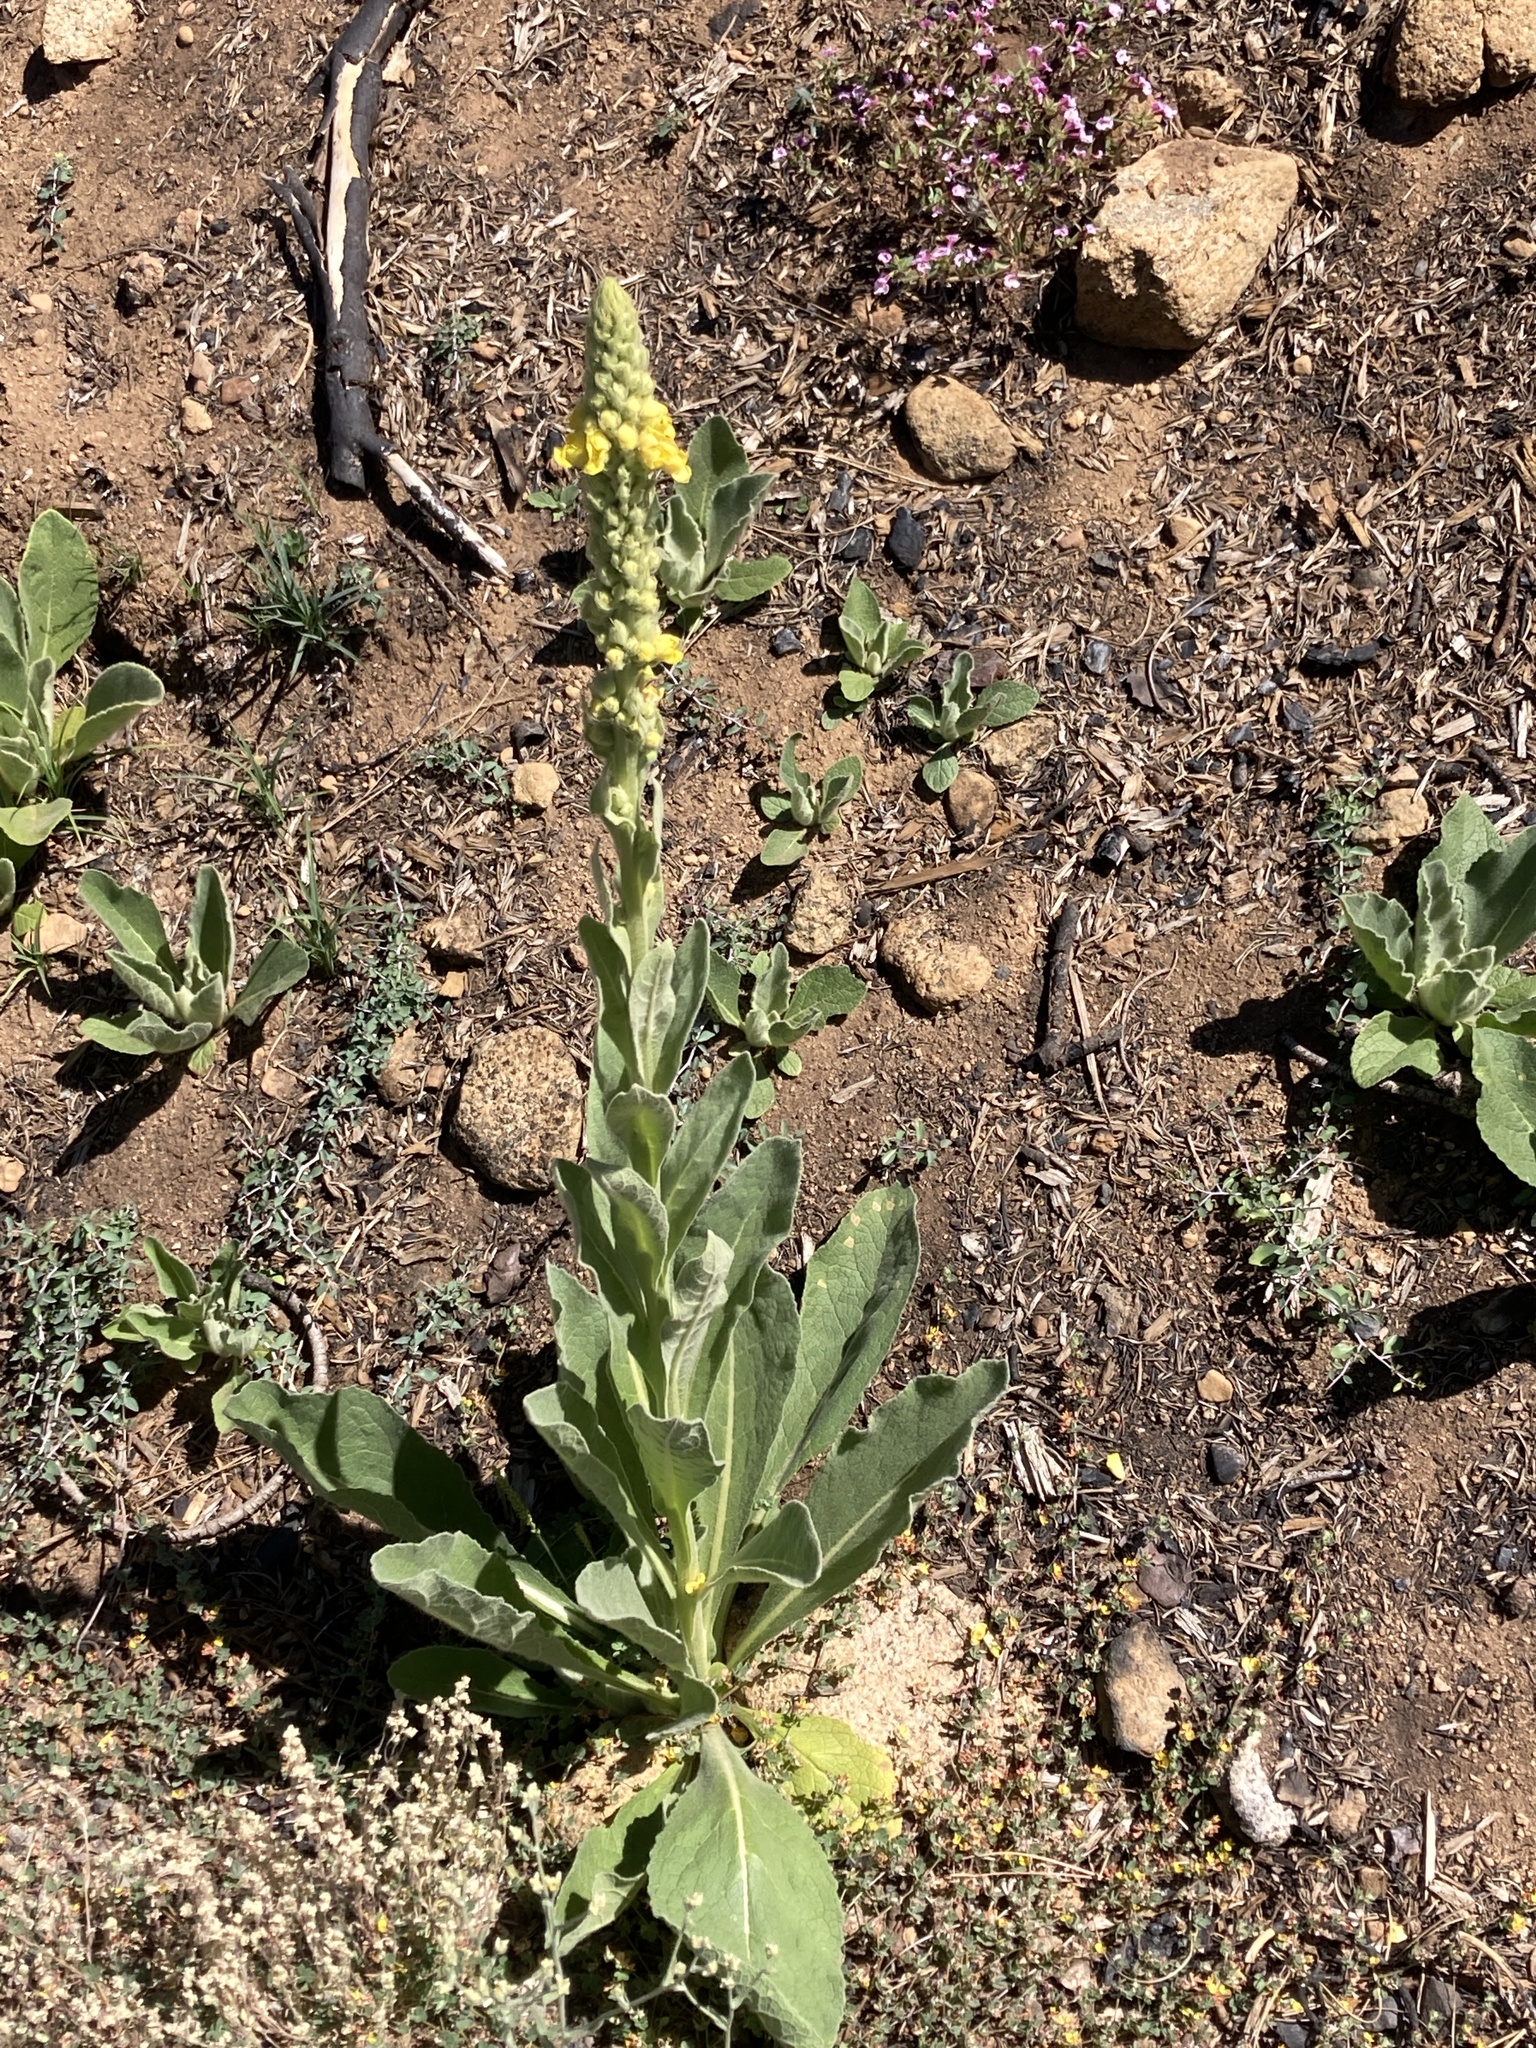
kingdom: Plantae
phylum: Tracheophyta
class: Magnoliopsida
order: Lamiales
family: Scrophulariaceae
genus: Verbascum
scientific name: Verbascum thapsus
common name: Common mullein
